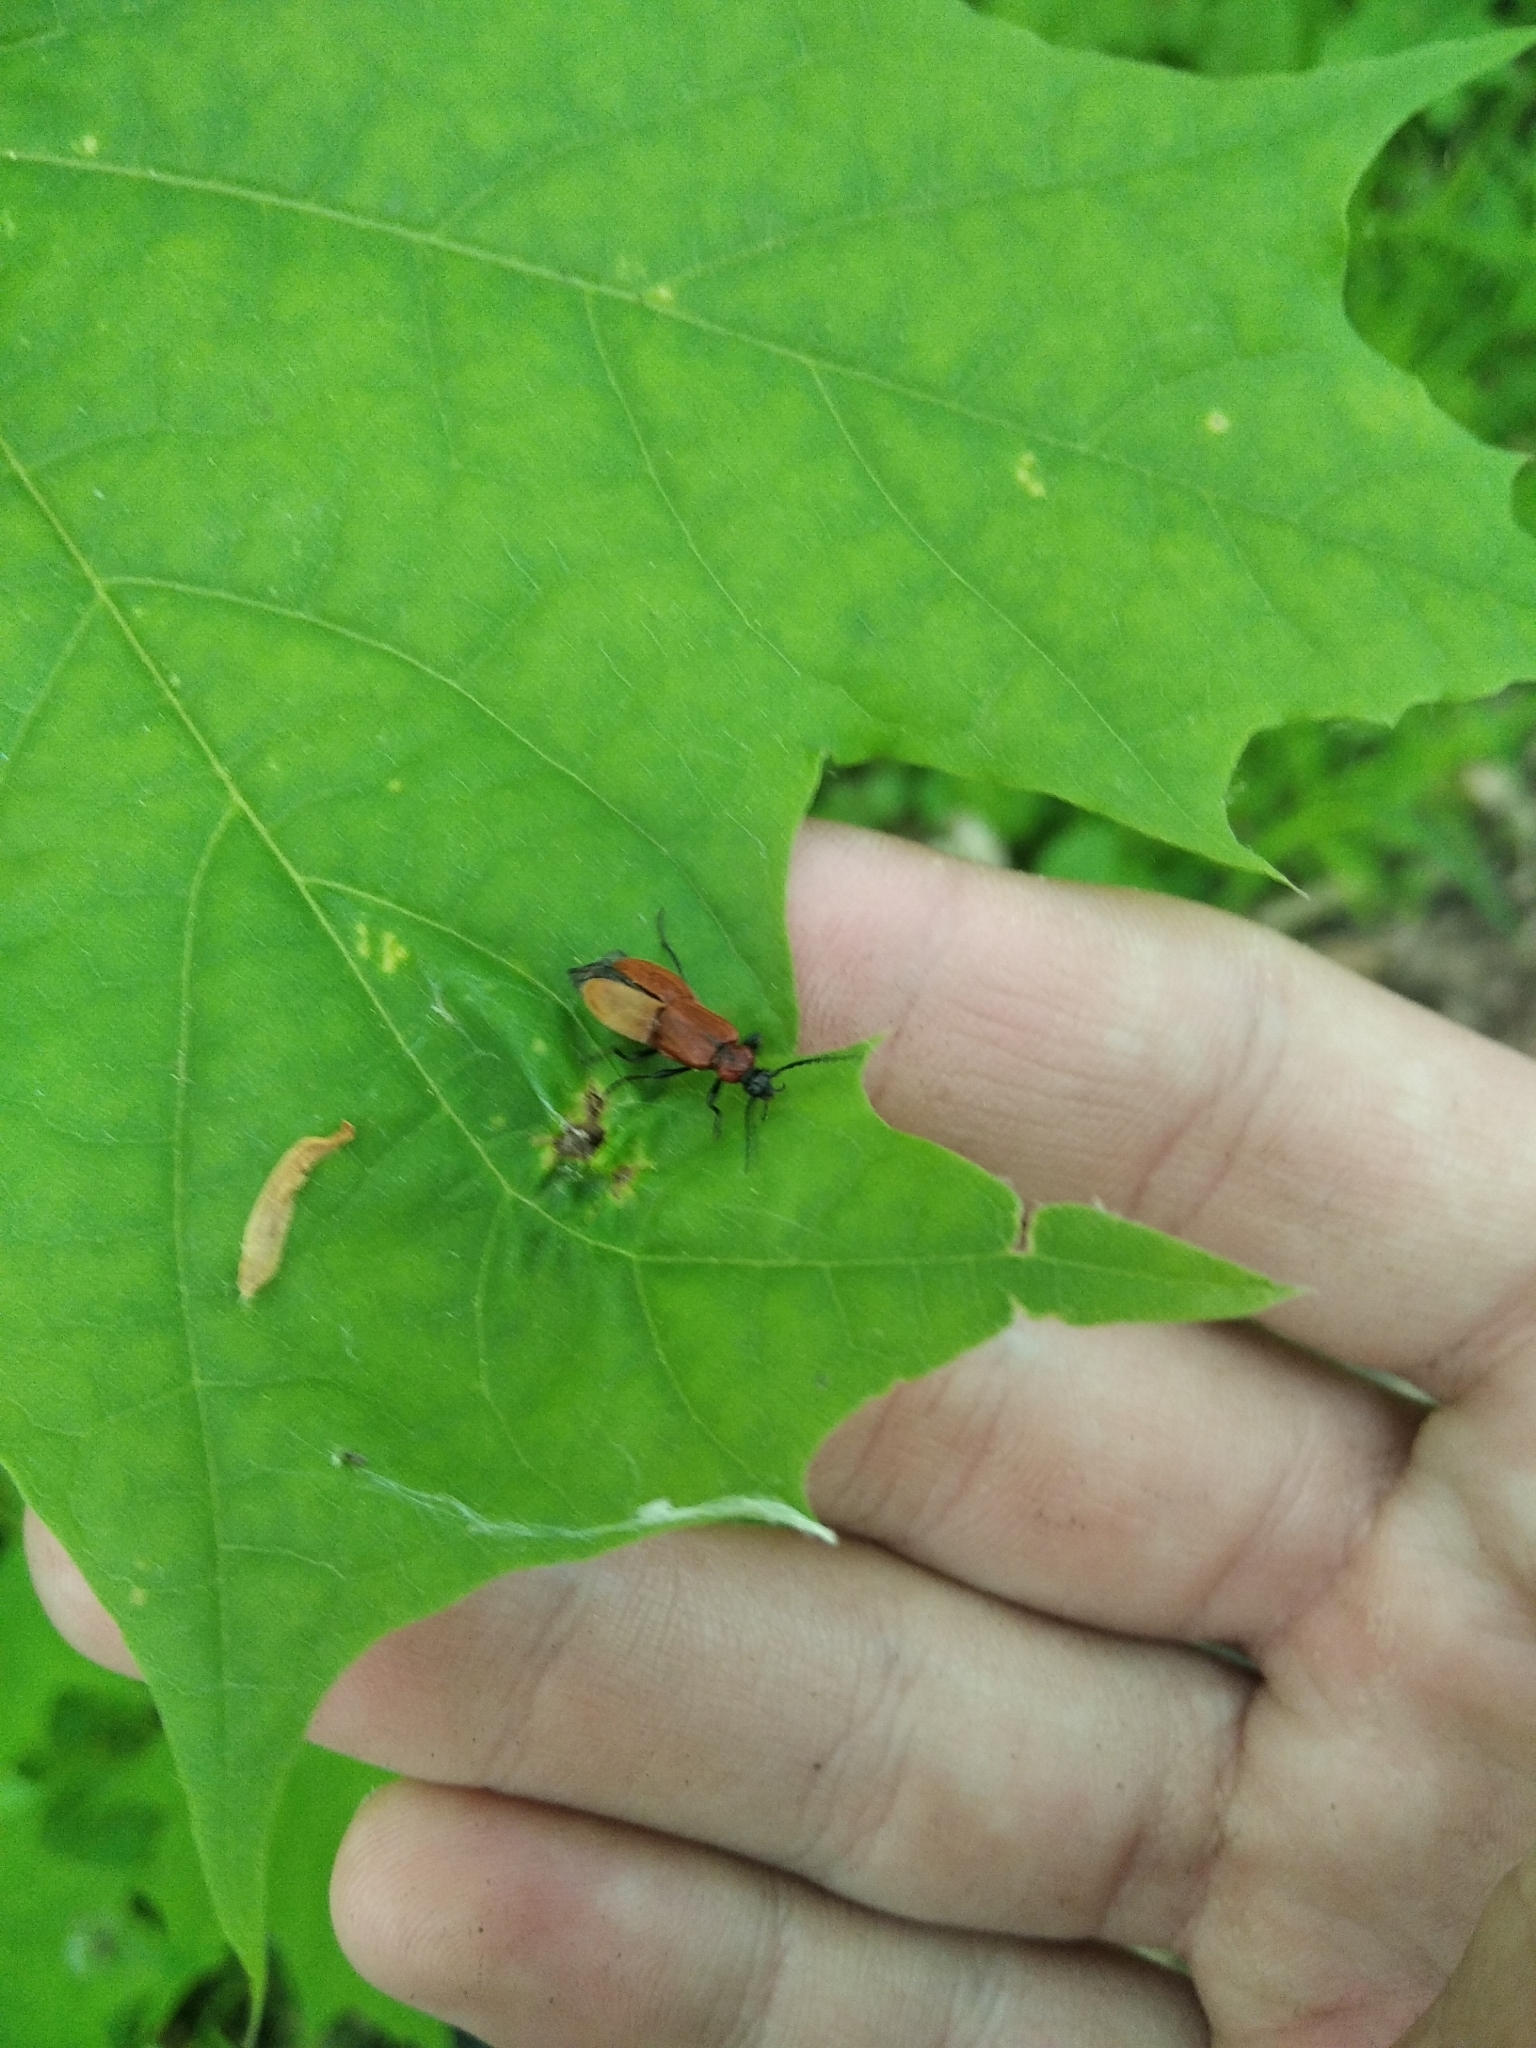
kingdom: Animalia
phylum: Arthropoda
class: Insecta
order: Coleoptera
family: Pyrochroidae
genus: Schizotus
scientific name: Schizotus pectinicornis
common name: Scarce cardinal beetle
